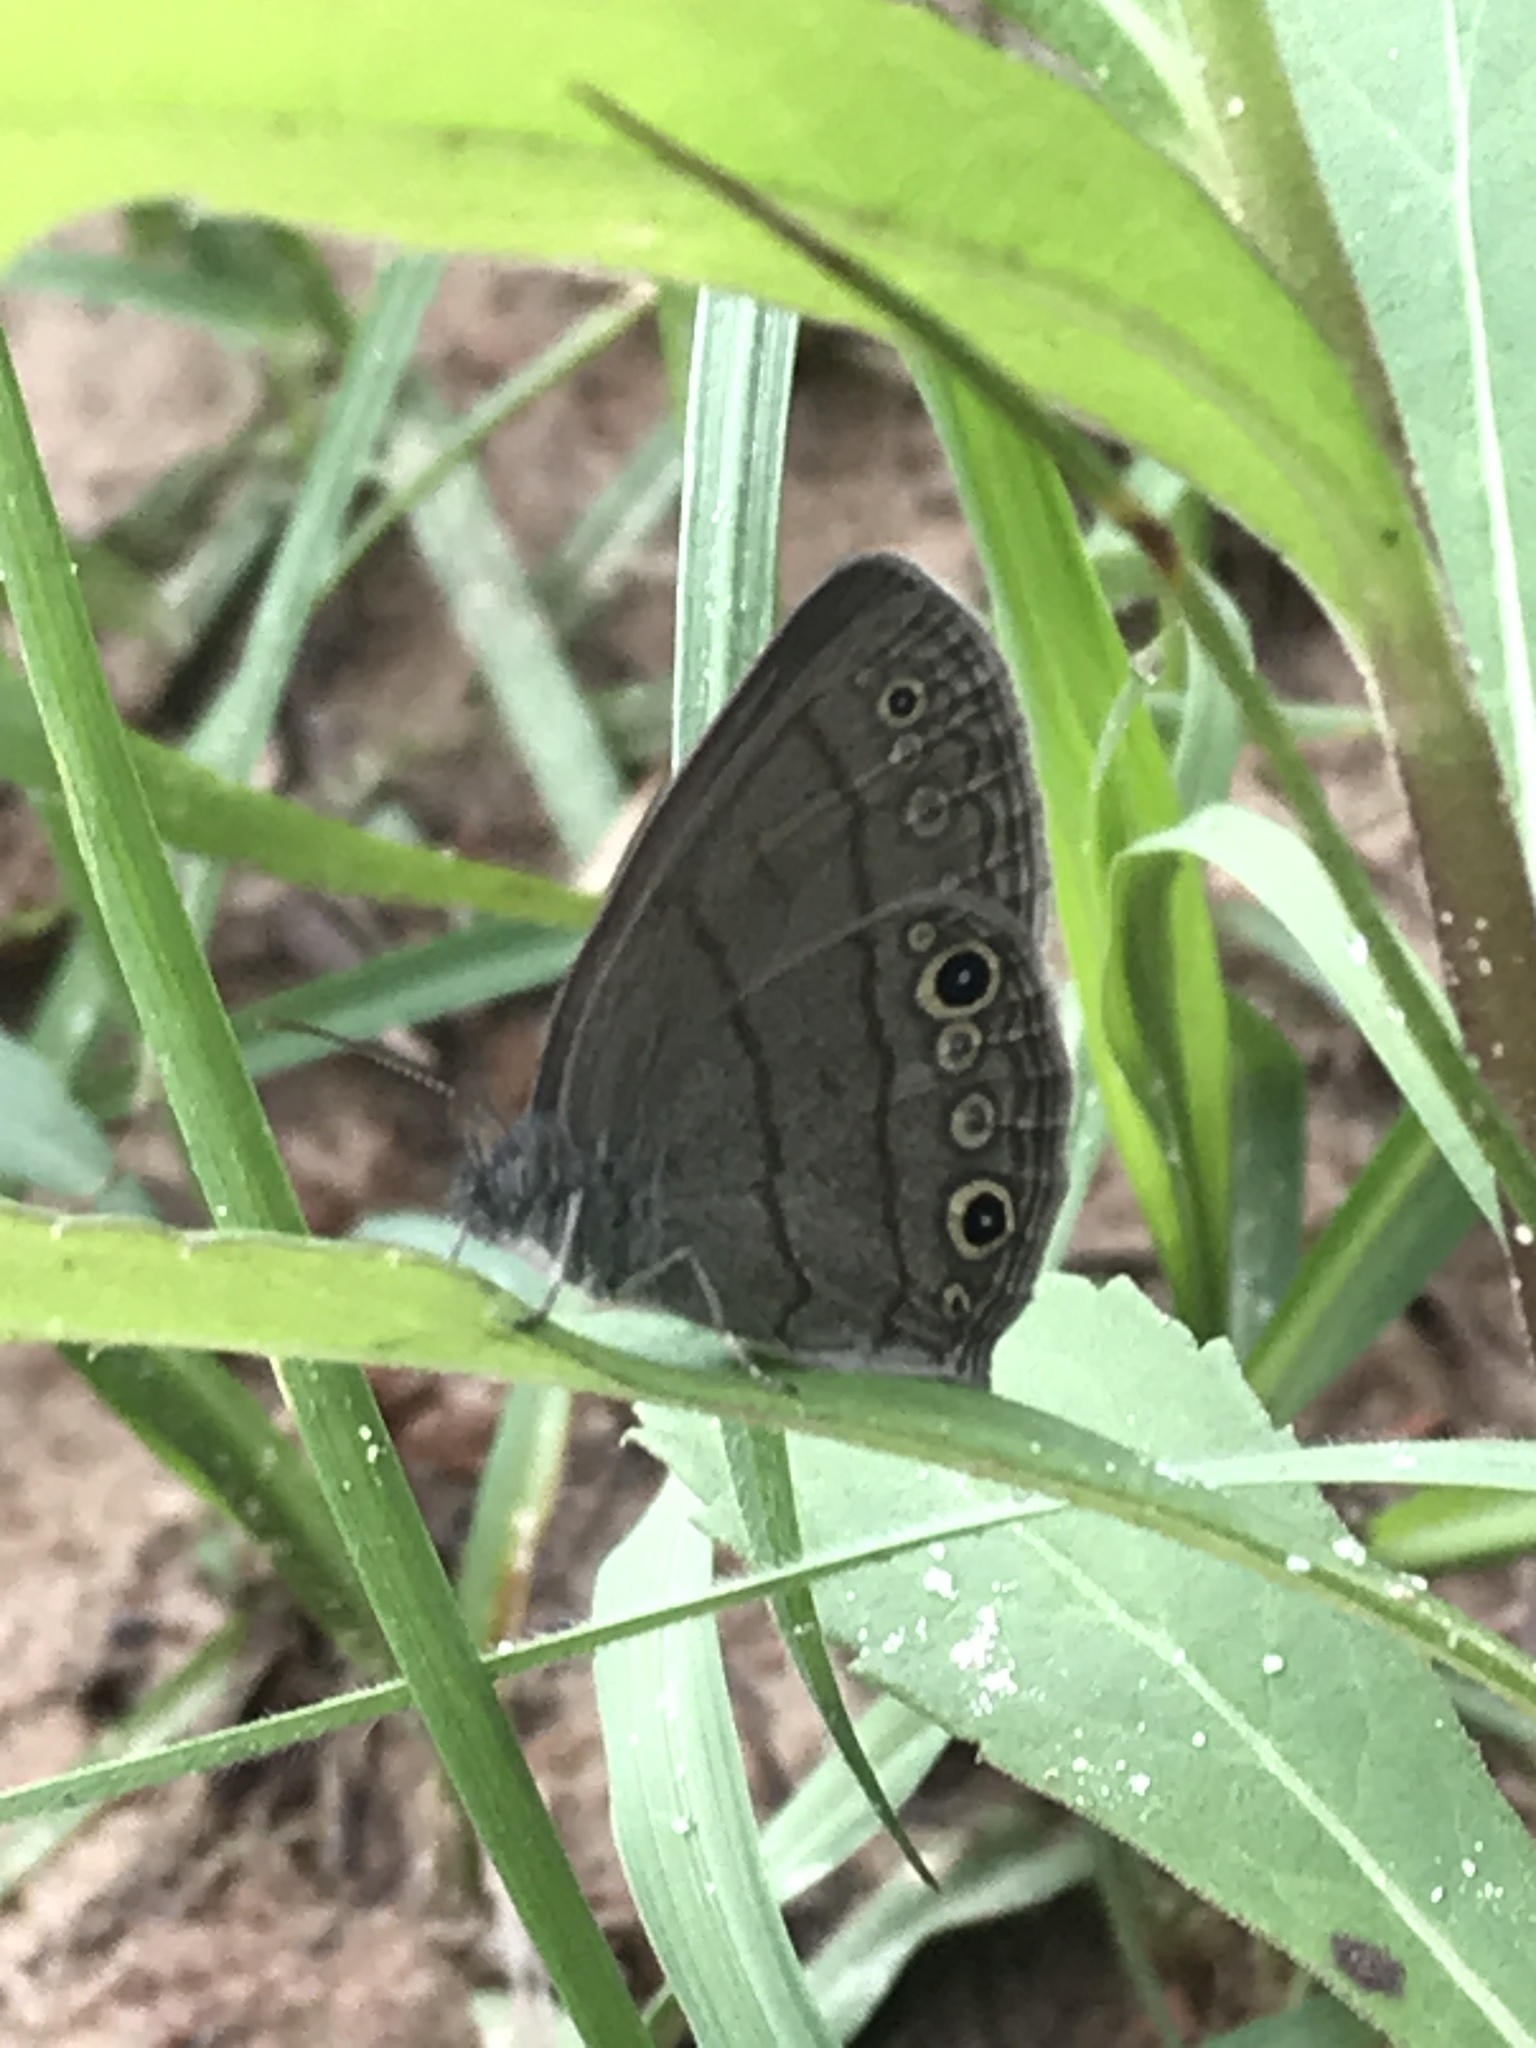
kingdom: Animalia
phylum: Arthropoda
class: Insecta
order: Lepidoptera
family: Nymphalidae
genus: Hermeuptychia
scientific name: Hermeuptychia hermes
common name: Hermes satyr
